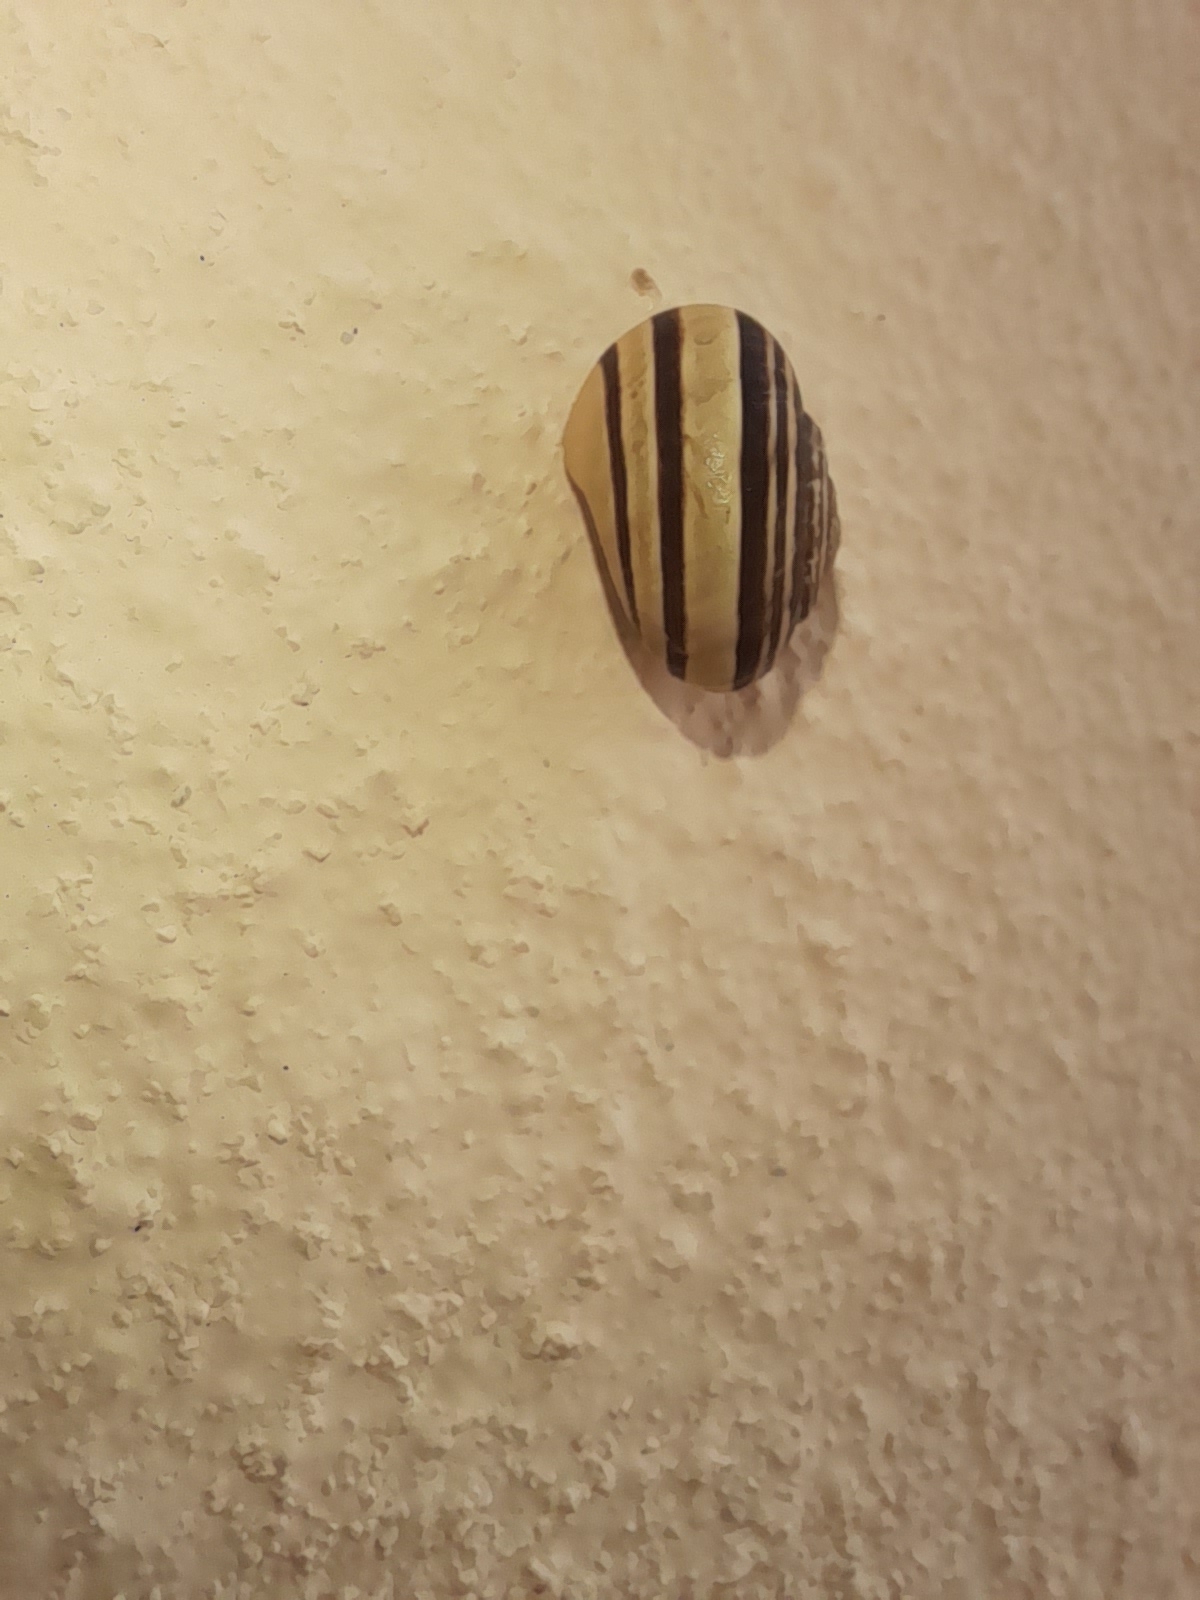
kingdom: Animalia
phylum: Mollusca
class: Gastropoda
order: Stylommatophora
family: Helicidae
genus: Eobania
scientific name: Eobania vermiculata
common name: Chocolateband snail
